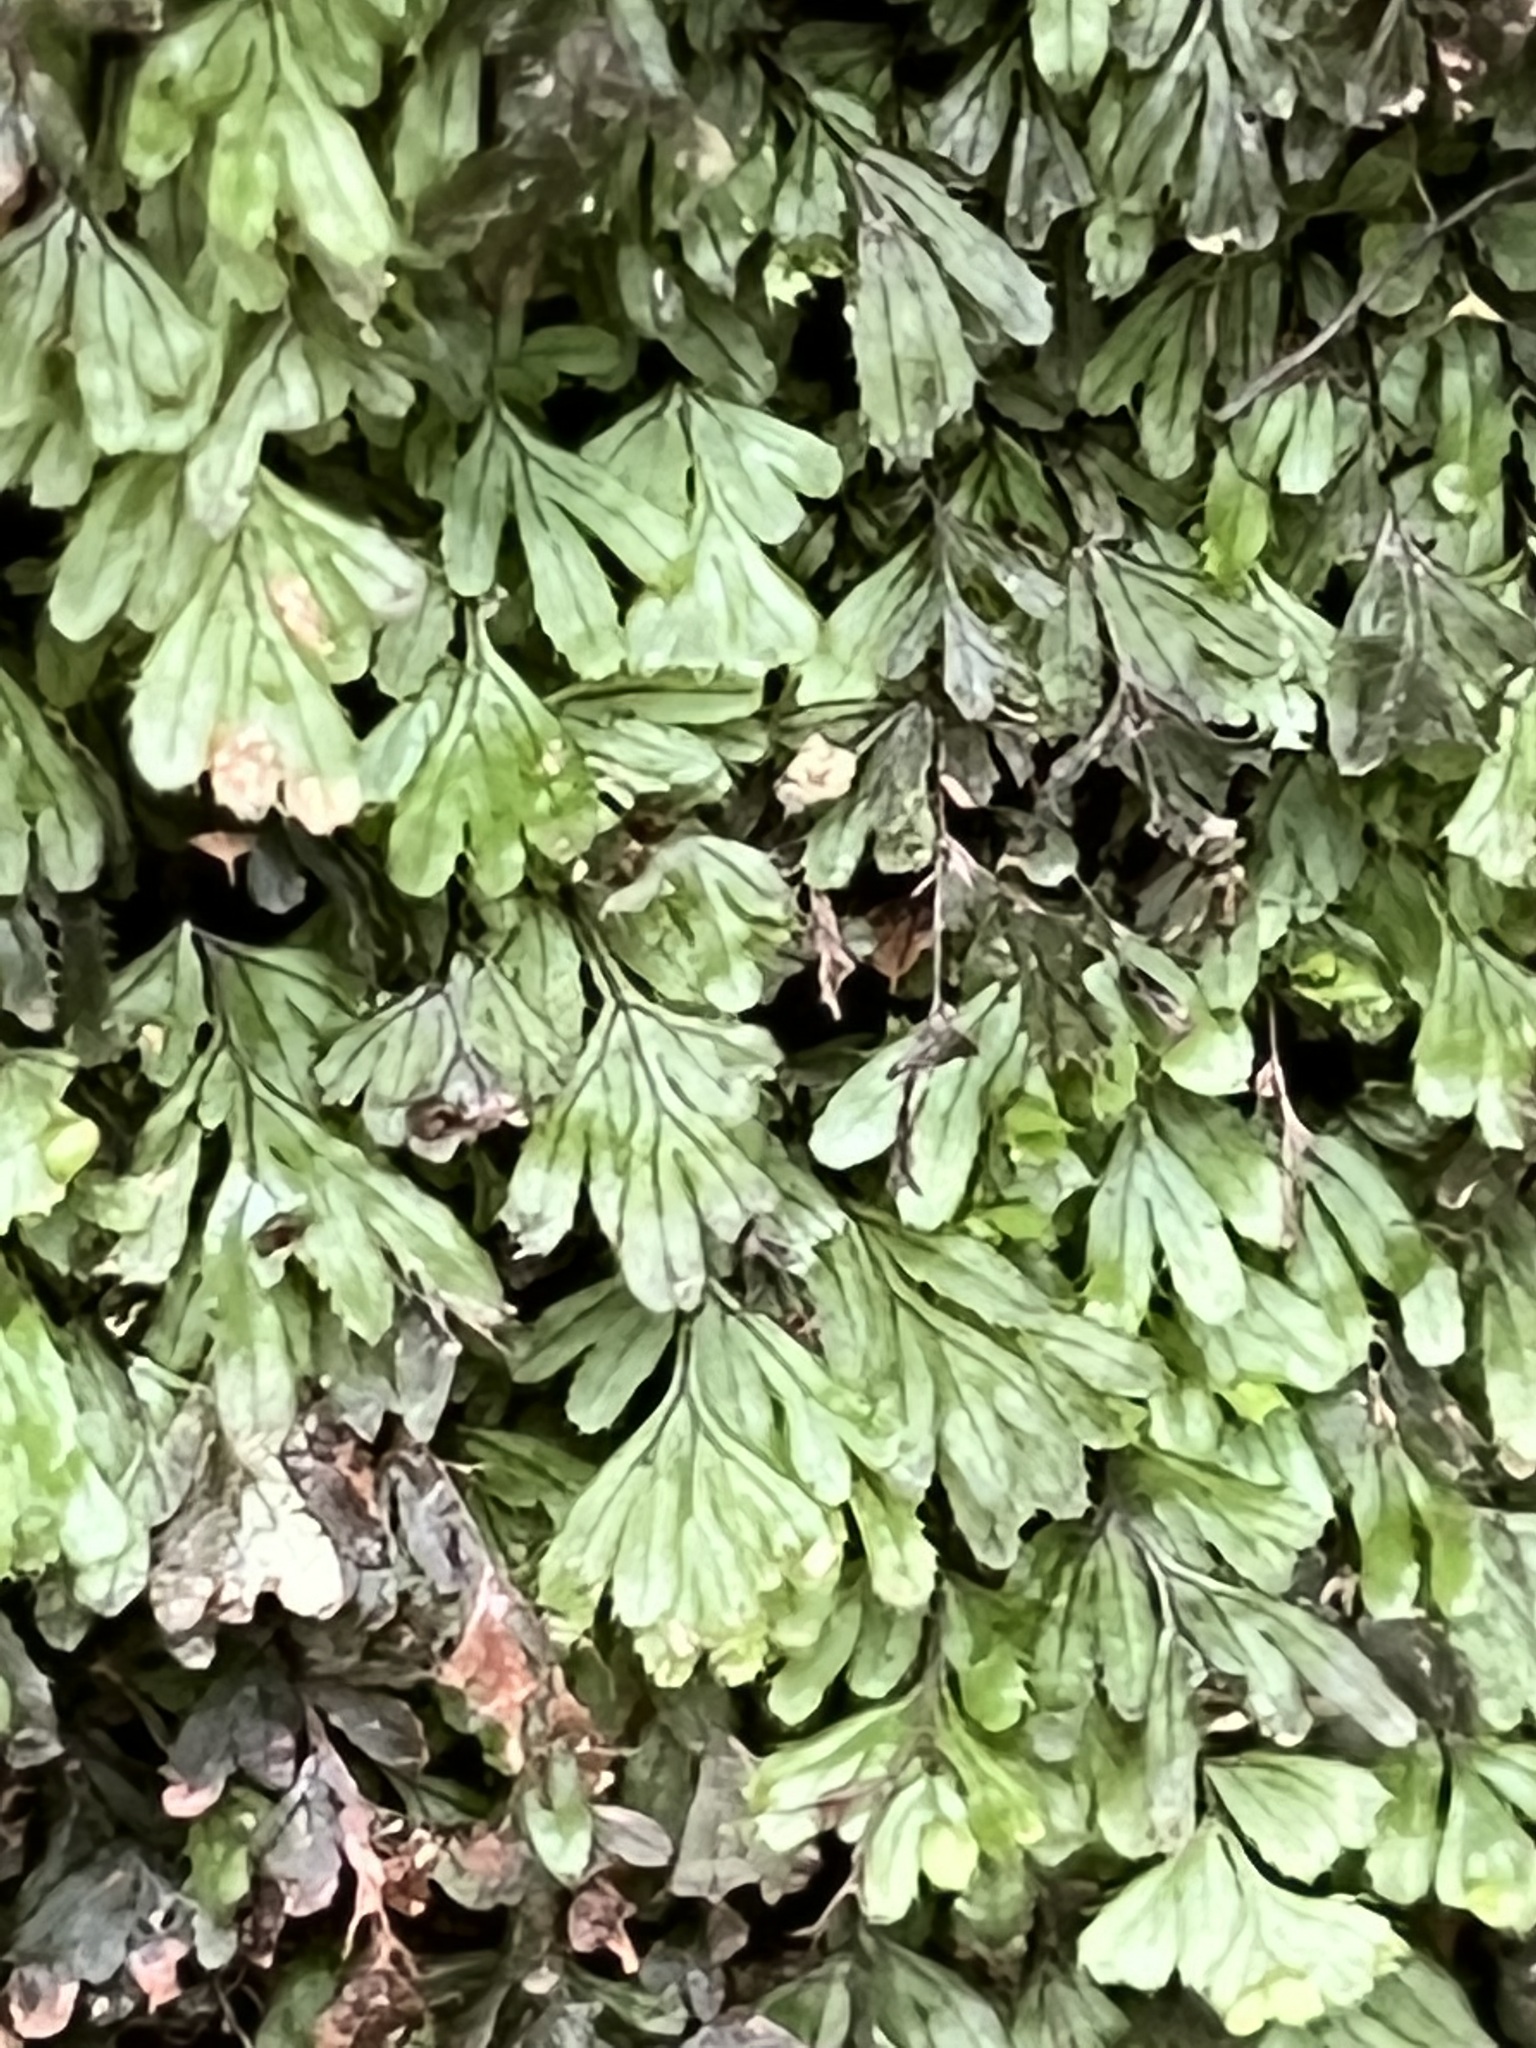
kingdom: Plantae
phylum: Tracheophyta
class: Polypodiopsida
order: Hymenophyllales
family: Hymenophyllaceae
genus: Hymenophyllum
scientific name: Hymenophyllum revolutum
